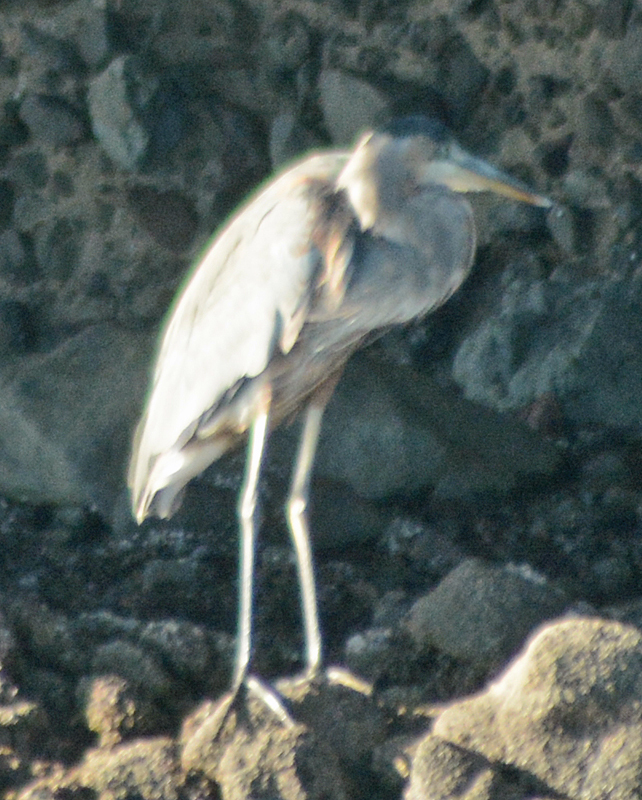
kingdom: Animalia
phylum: Chordata
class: Aves
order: Pelecaniformes
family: Ardeidae
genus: Ardea
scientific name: Ardea herodias
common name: Great blue heron
